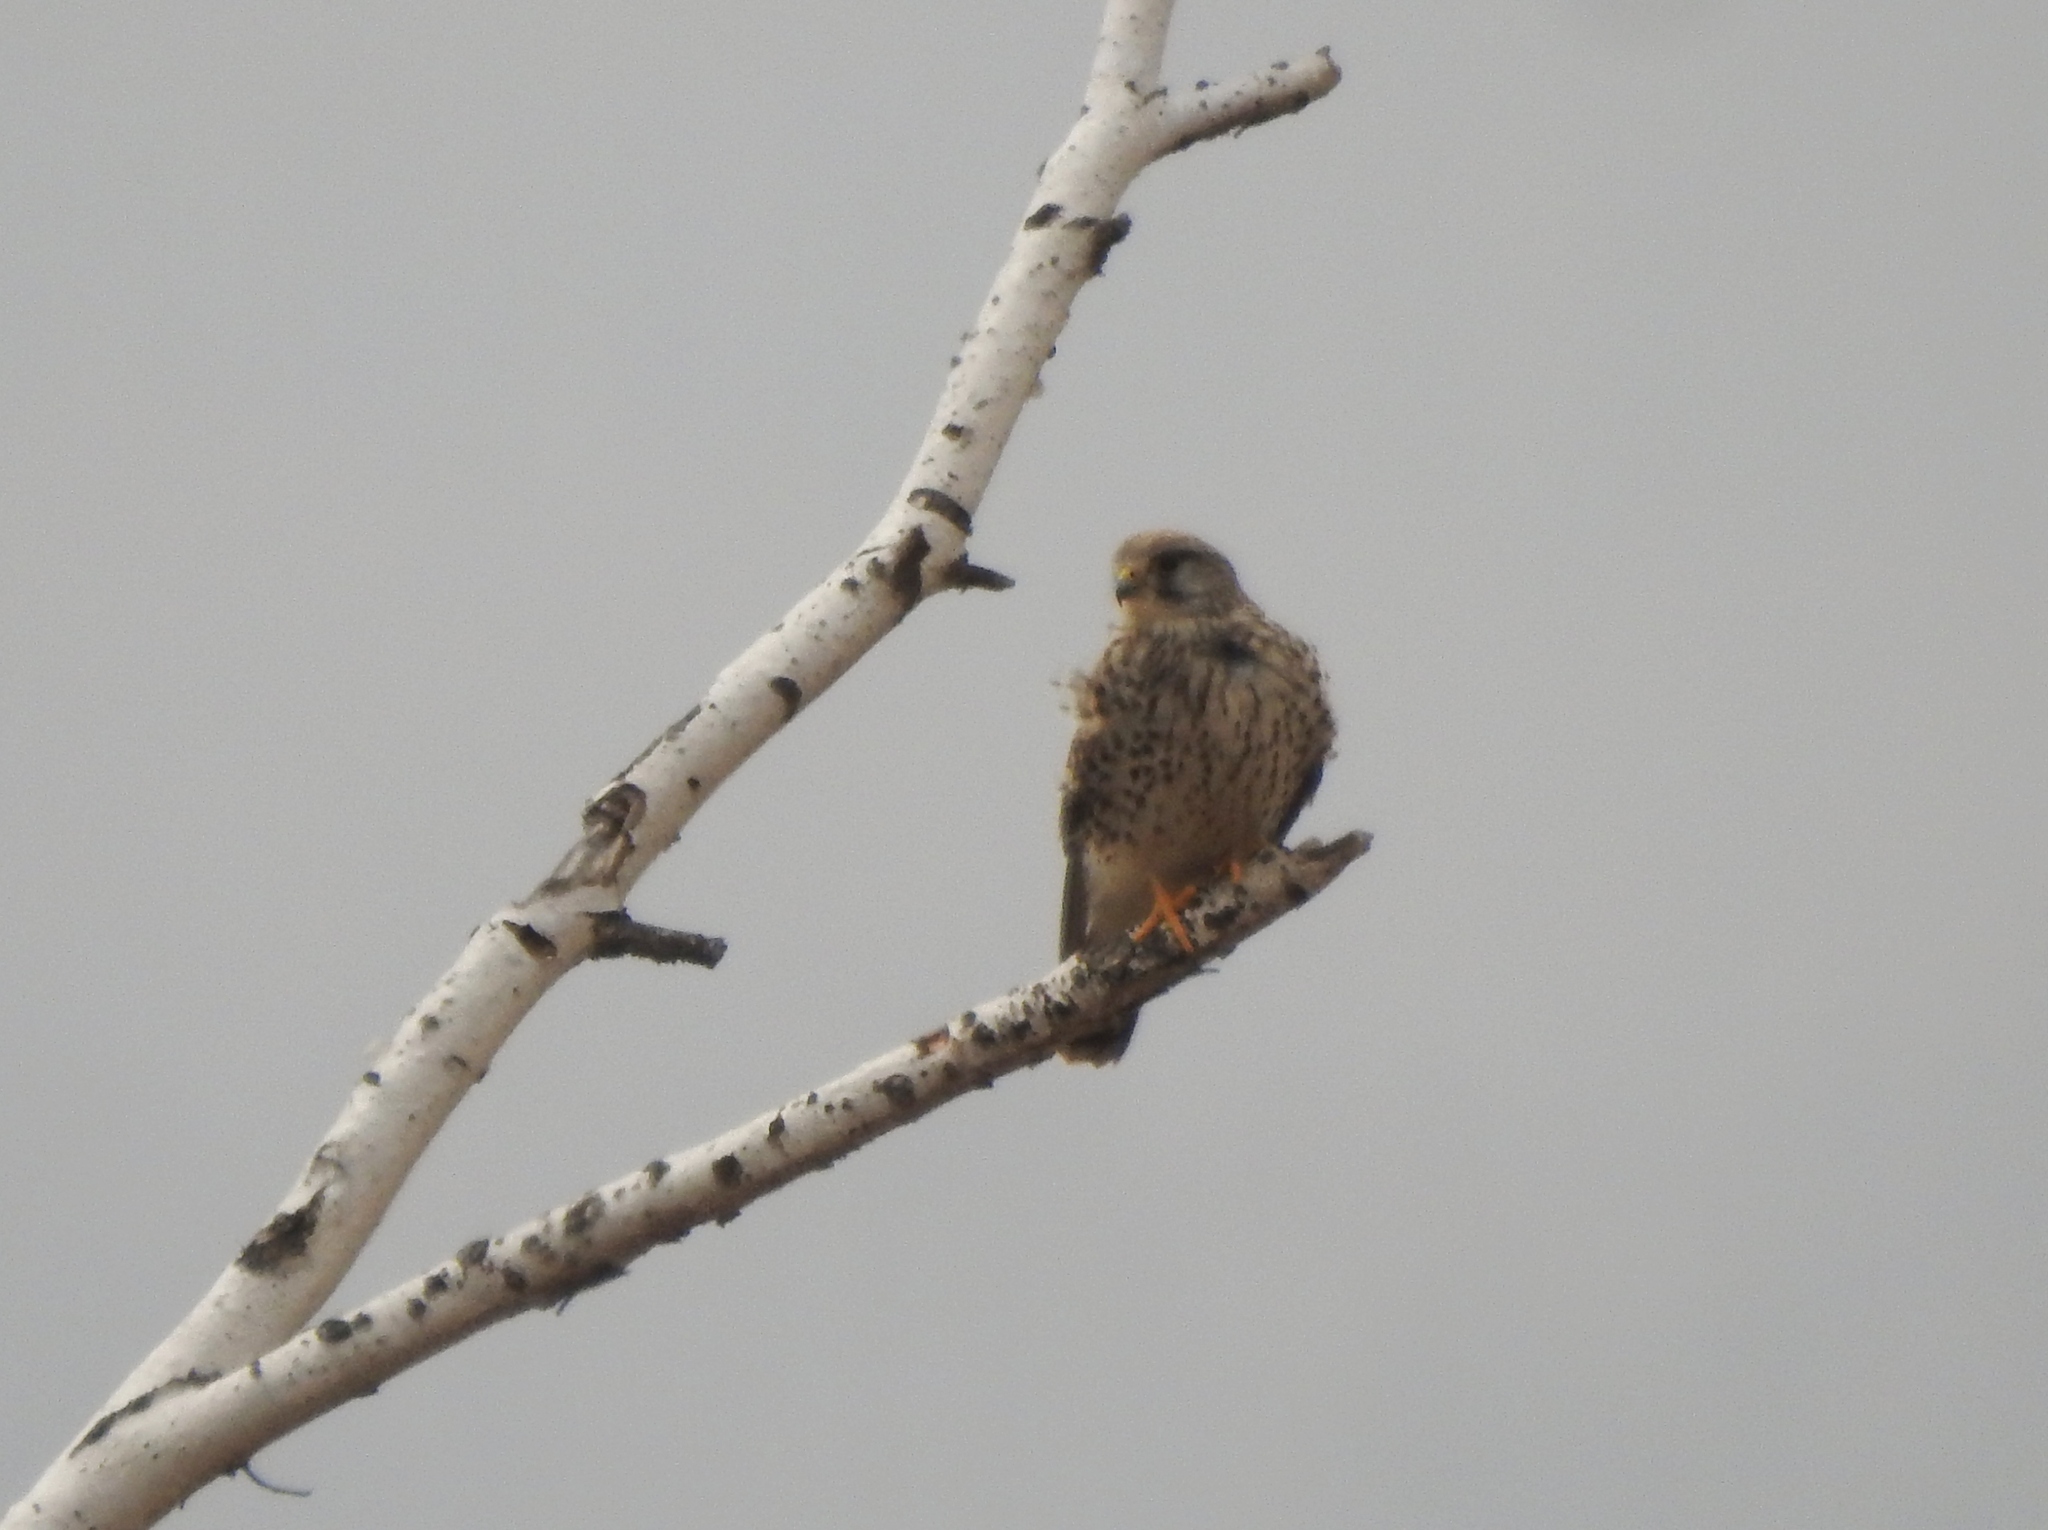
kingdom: Animalia
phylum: Chordata
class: Aves
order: Falconiformes
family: Falconidae
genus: Falco
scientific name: Falco tinnunculus
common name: Common kestrel
